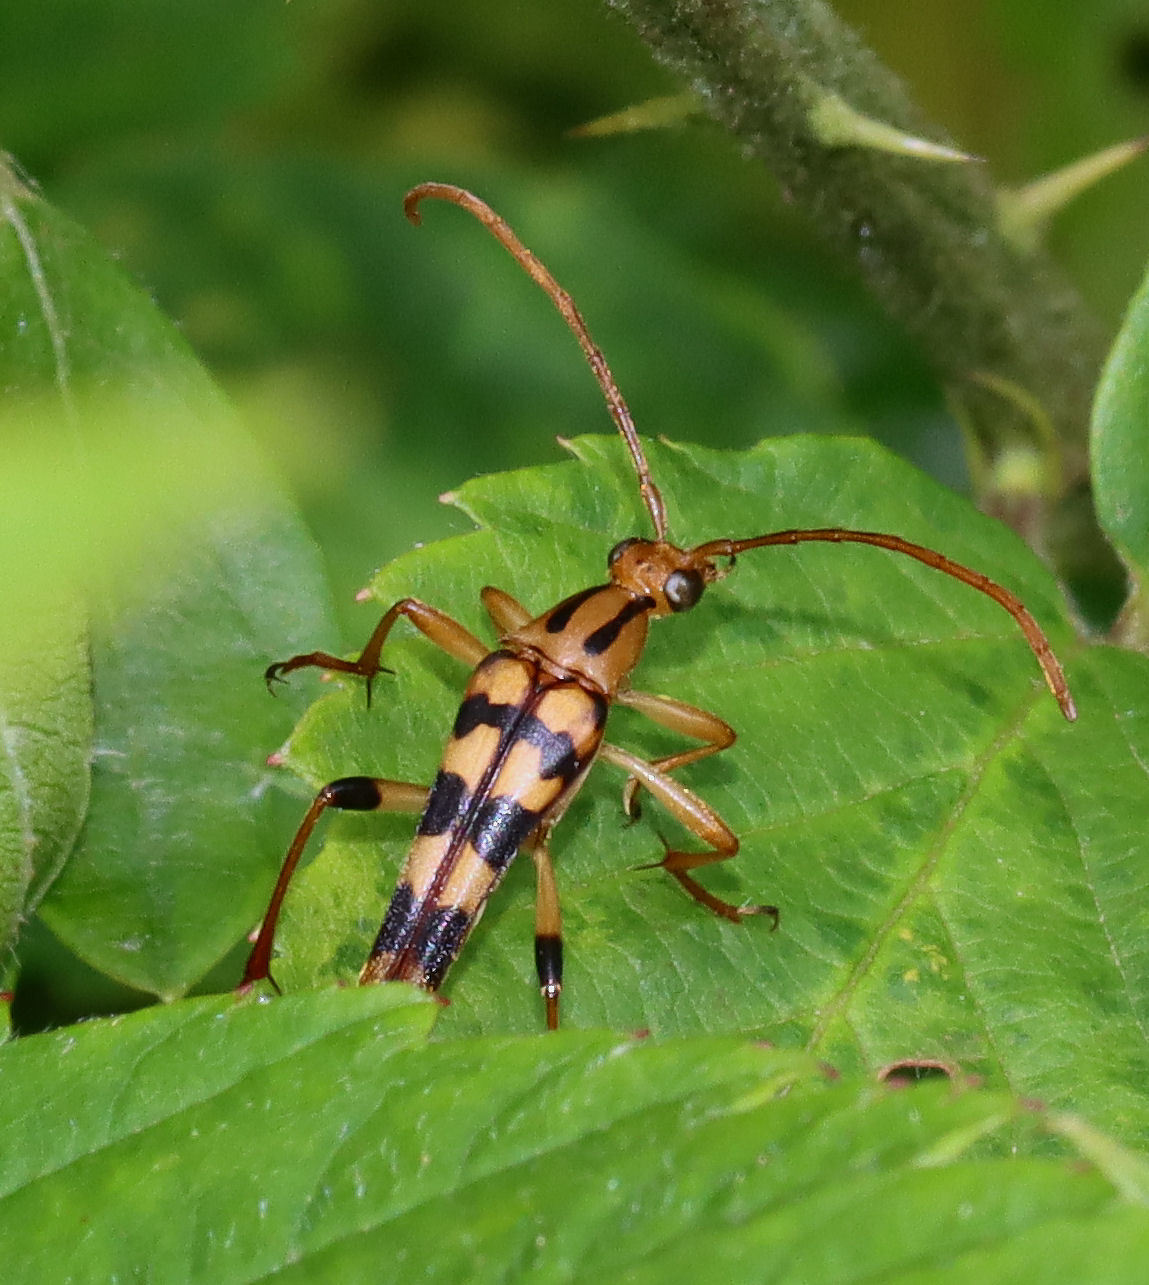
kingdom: Animalia
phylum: Arthropoda
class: Insecta
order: Coleoptera
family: Cerambycidae
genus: Strangalia
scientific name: Strangalia luteicornis
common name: Yellow-horned flower longhorn beetle
